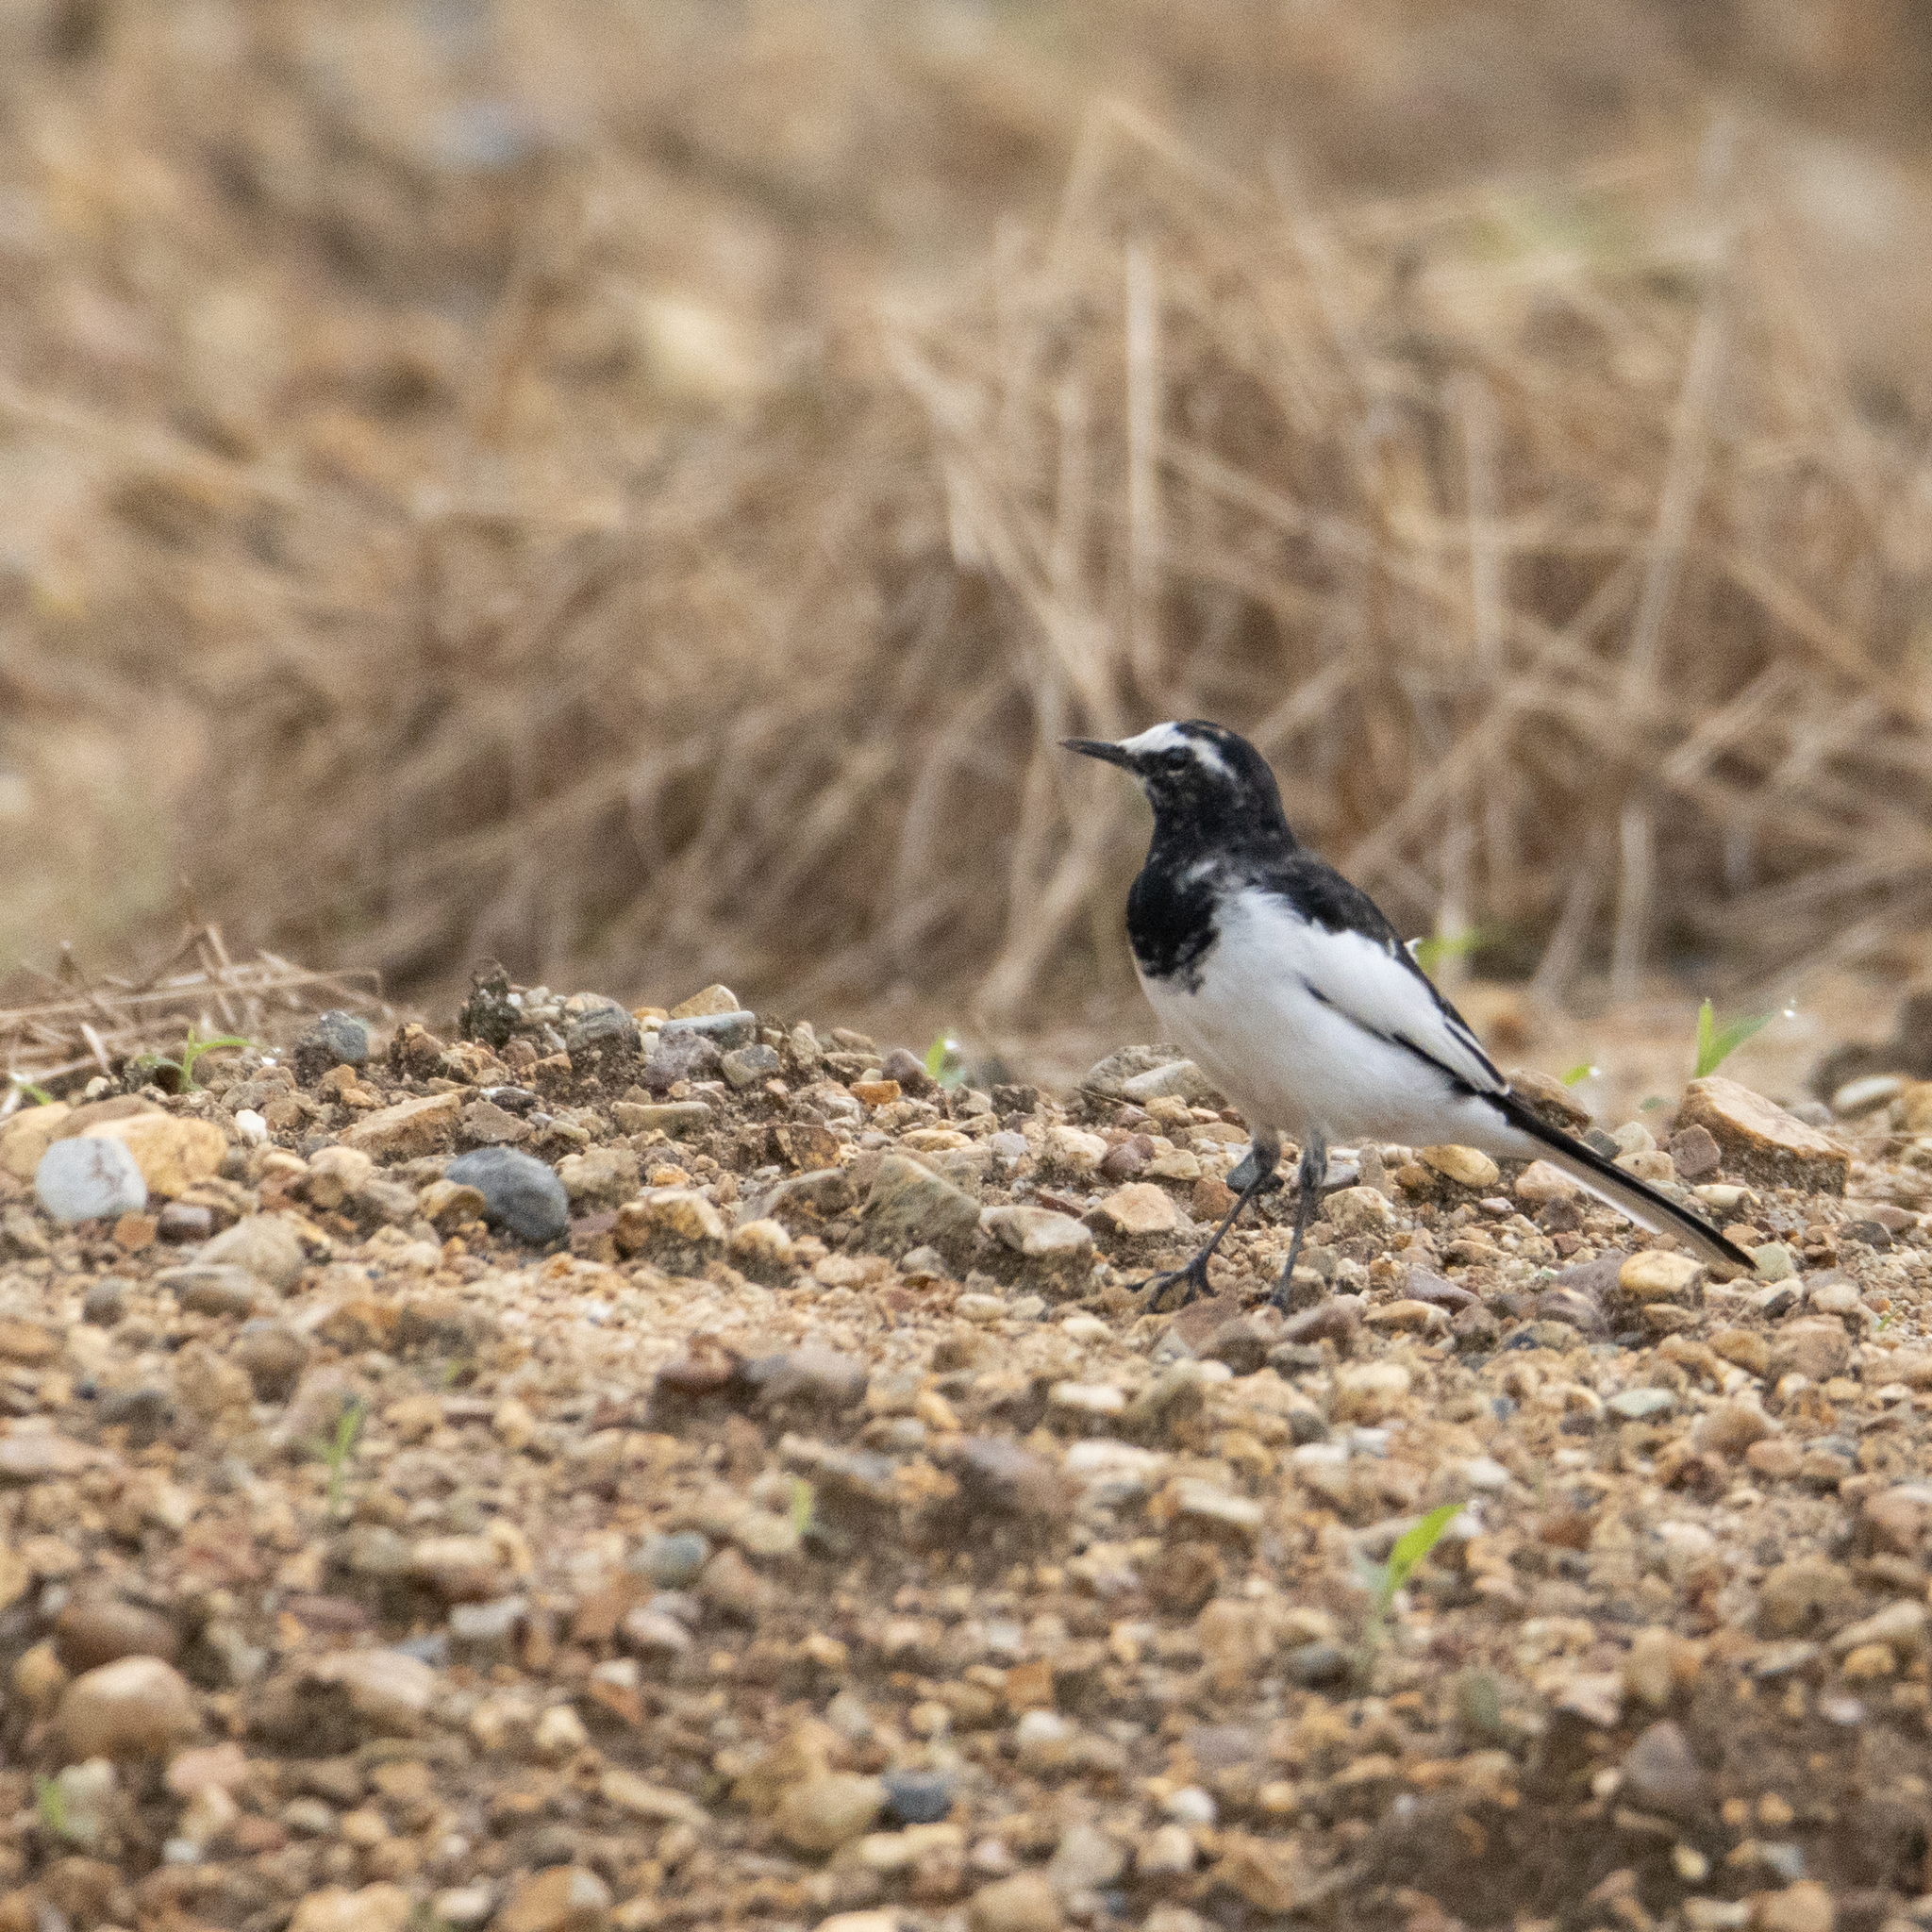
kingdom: Animalia
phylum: Chordata
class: Aves
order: Passeriformes
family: Motacillidae
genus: Motacilla
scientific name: Motacilla grandis
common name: Japanese wagtail
